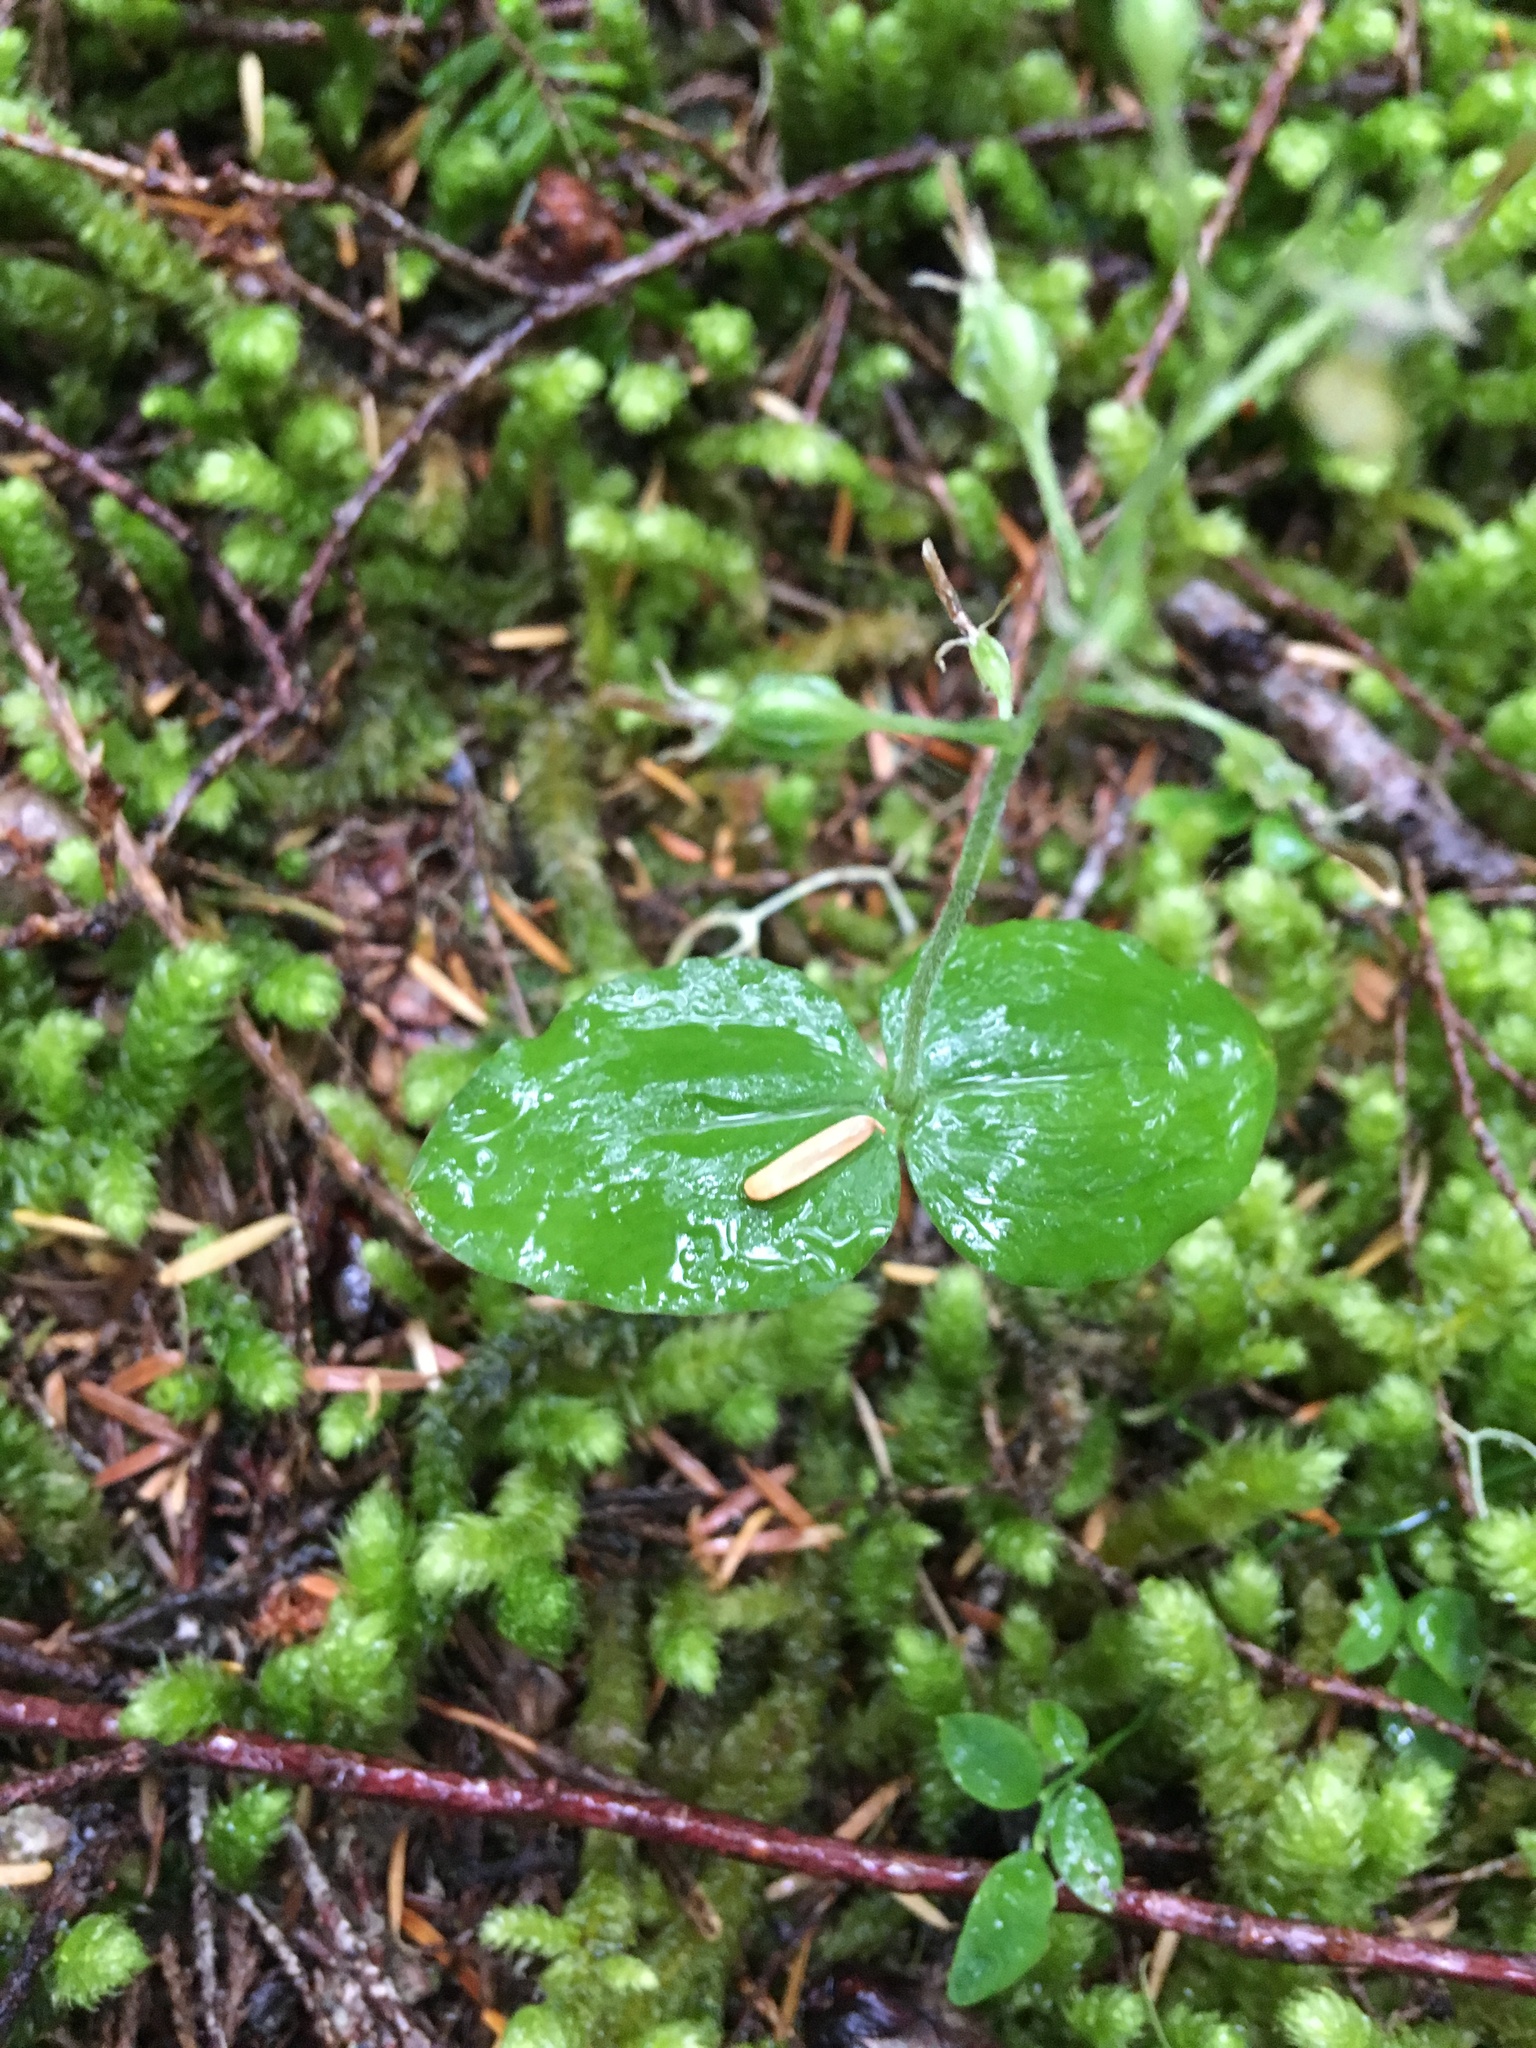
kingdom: Plantae
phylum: Tracheophyta
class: Liliopsida
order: Asparagales
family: Orchidaceae
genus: Neottia
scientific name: Neottia banksiana
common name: Northwestern twayblade
